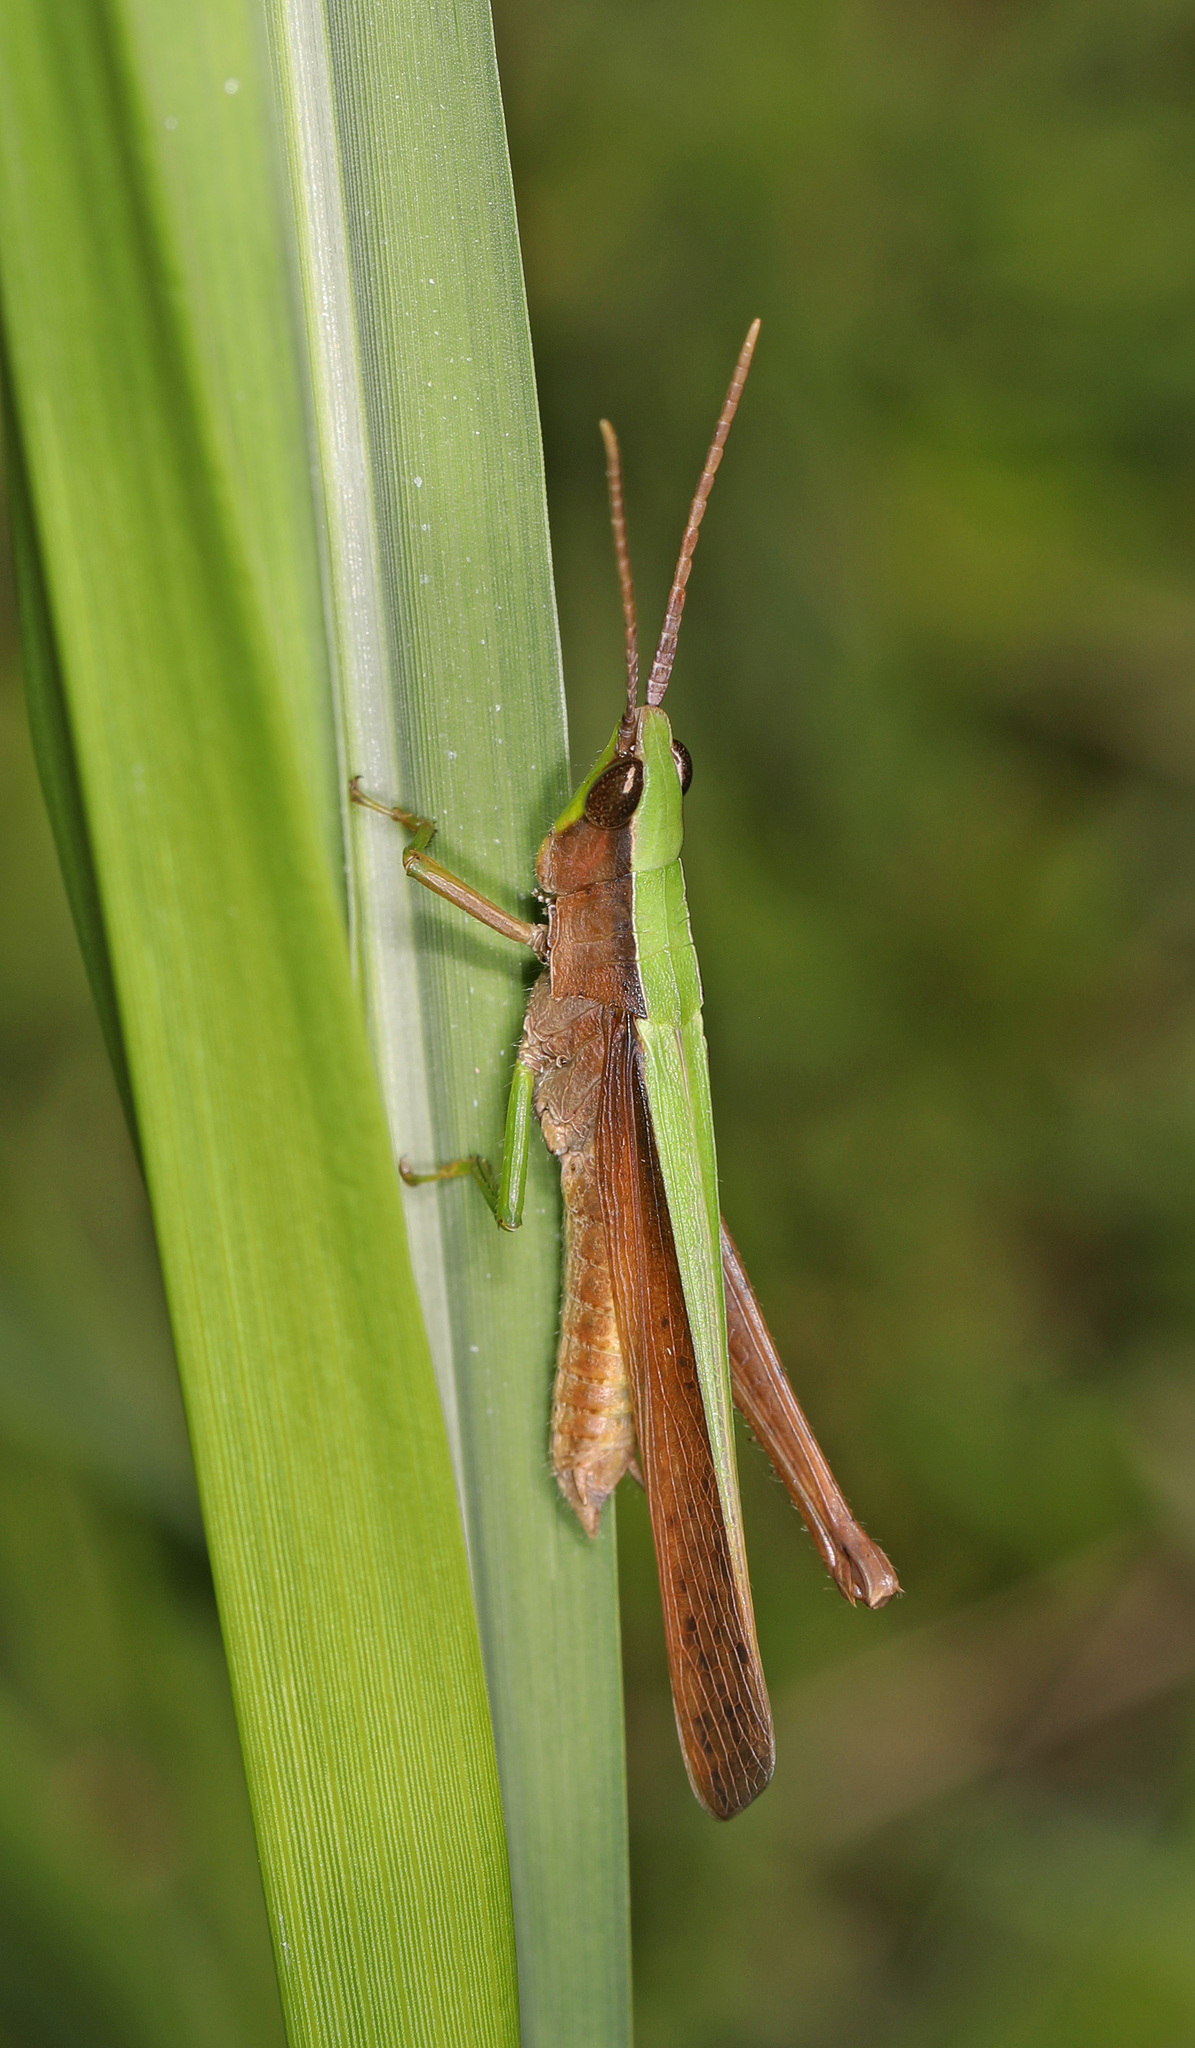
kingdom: Animalia
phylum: Arthropoda
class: Insecta
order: Orthoptera
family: Acrididae
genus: Metaleptea
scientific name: Metaleptea brevicornis
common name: Clipped-wing grasshopper
